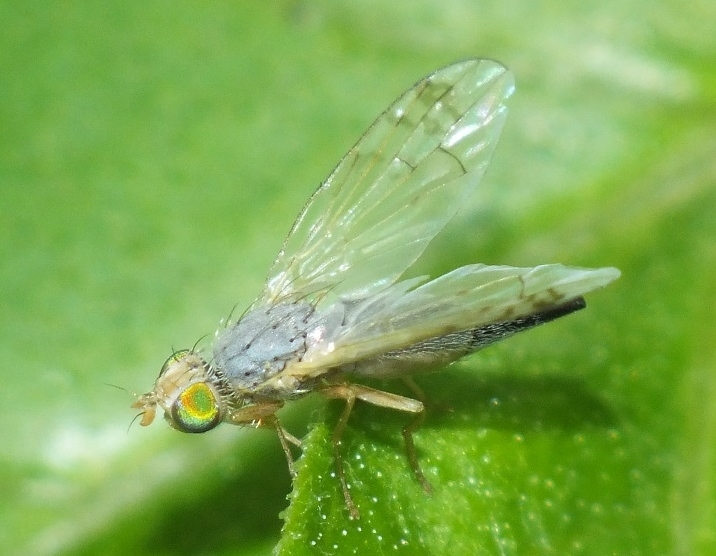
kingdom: Animalia
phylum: Arthropoda
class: Insecta
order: Diptera
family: Tephritidae
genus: Acanthiophilus
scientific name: Acanthiophilus helianthi
